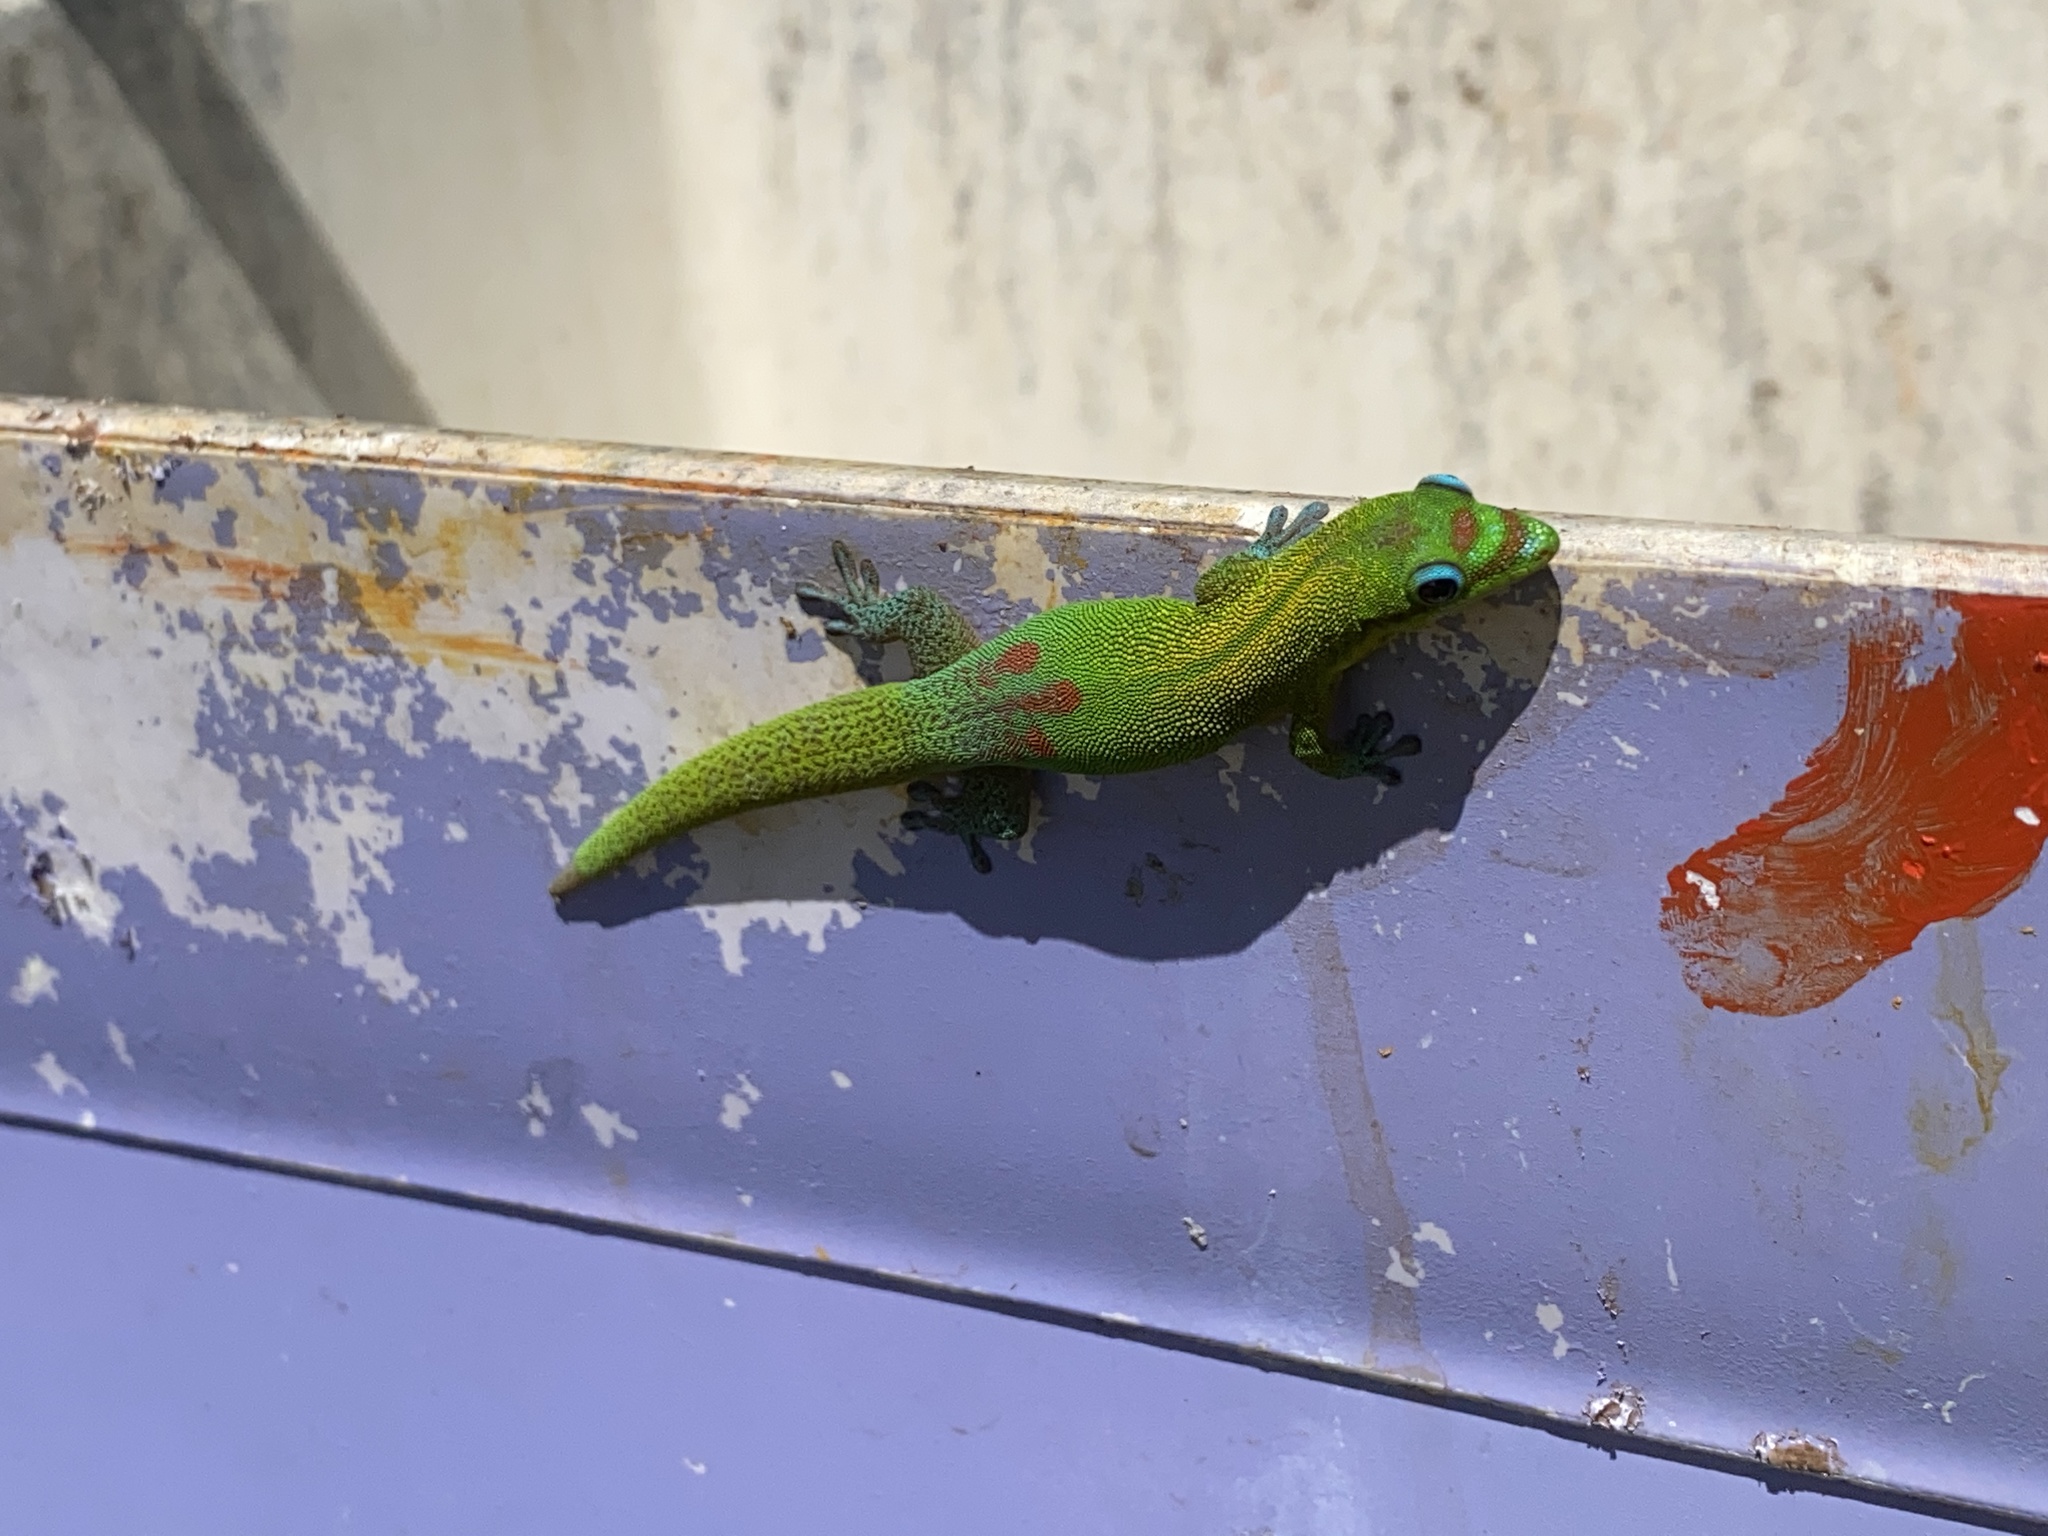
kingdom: Animalia
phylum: Chordata
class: Squamata
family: Gekkonidae
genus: Phelsuma
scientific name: Phelsuma laticauda
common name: Gold dust day gecko
